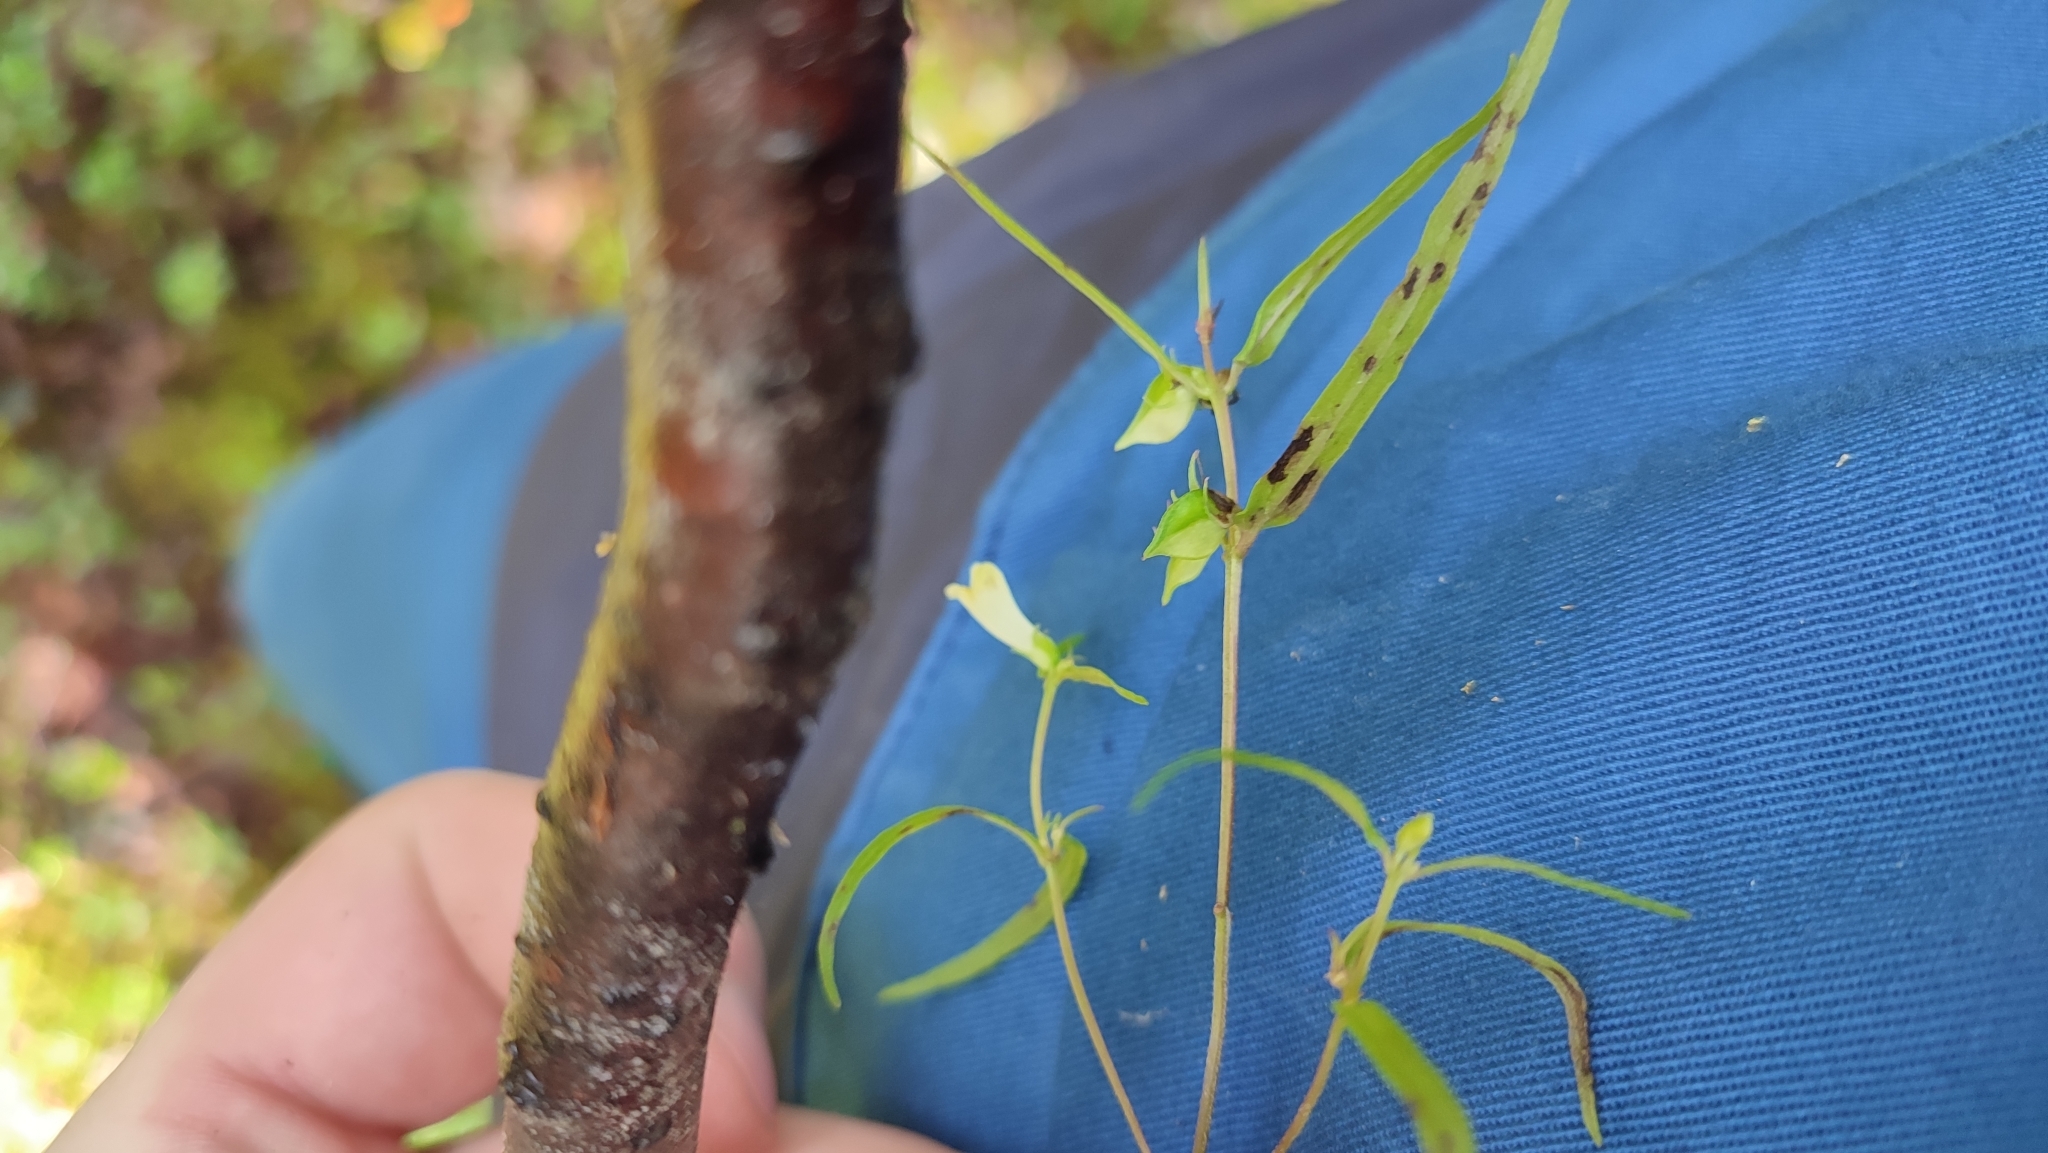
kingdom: Plantae
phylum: Tracheophyta
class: Magnoliopsida
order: Lamiales
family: Orobanchaceae
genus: Melampyrum
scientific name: Melampyrum pratense
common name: Common cow-wheat
